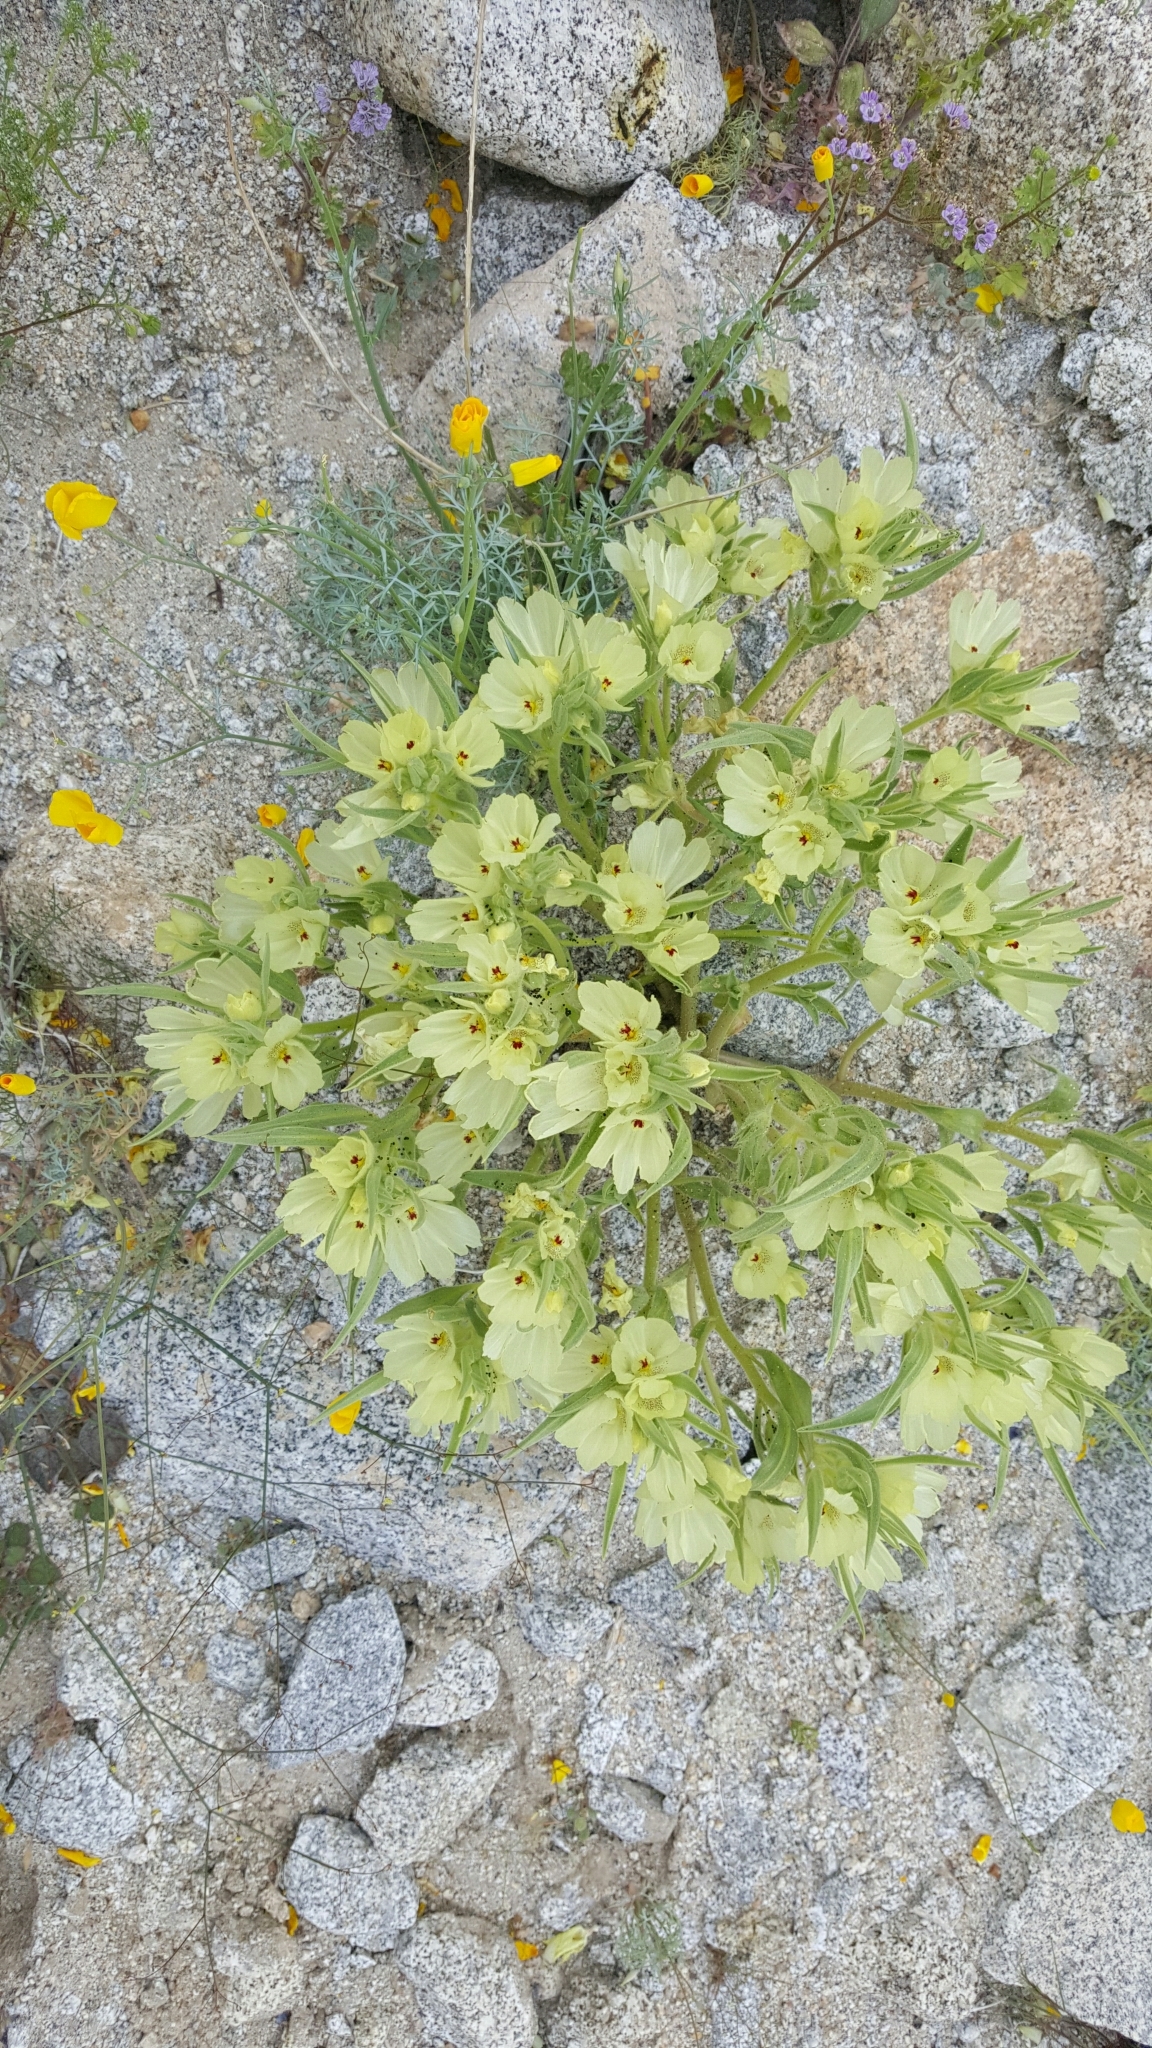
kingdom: Plantae
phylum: Tracheophyta
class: Magnoliopsida
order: Lamiales
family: Plantaginaceae
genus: Mohavea
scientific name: Mohavea confertiflora
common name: Ghost flower
